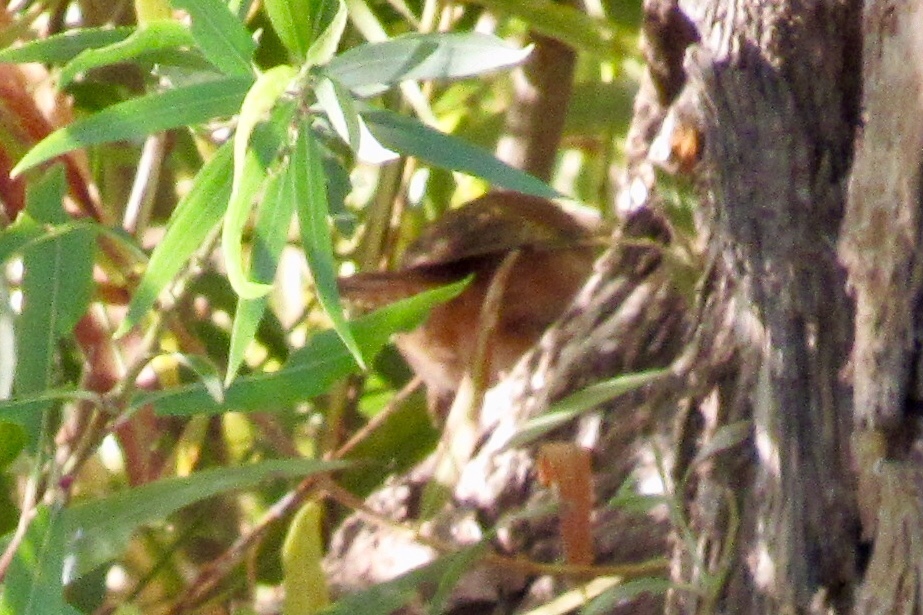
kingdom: Animalia
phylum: Chordata
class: Aves
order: Passeriformes
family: Troglodytidae
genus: Cistothorus
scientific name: Cistothorus palustris
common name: Marsh wren
